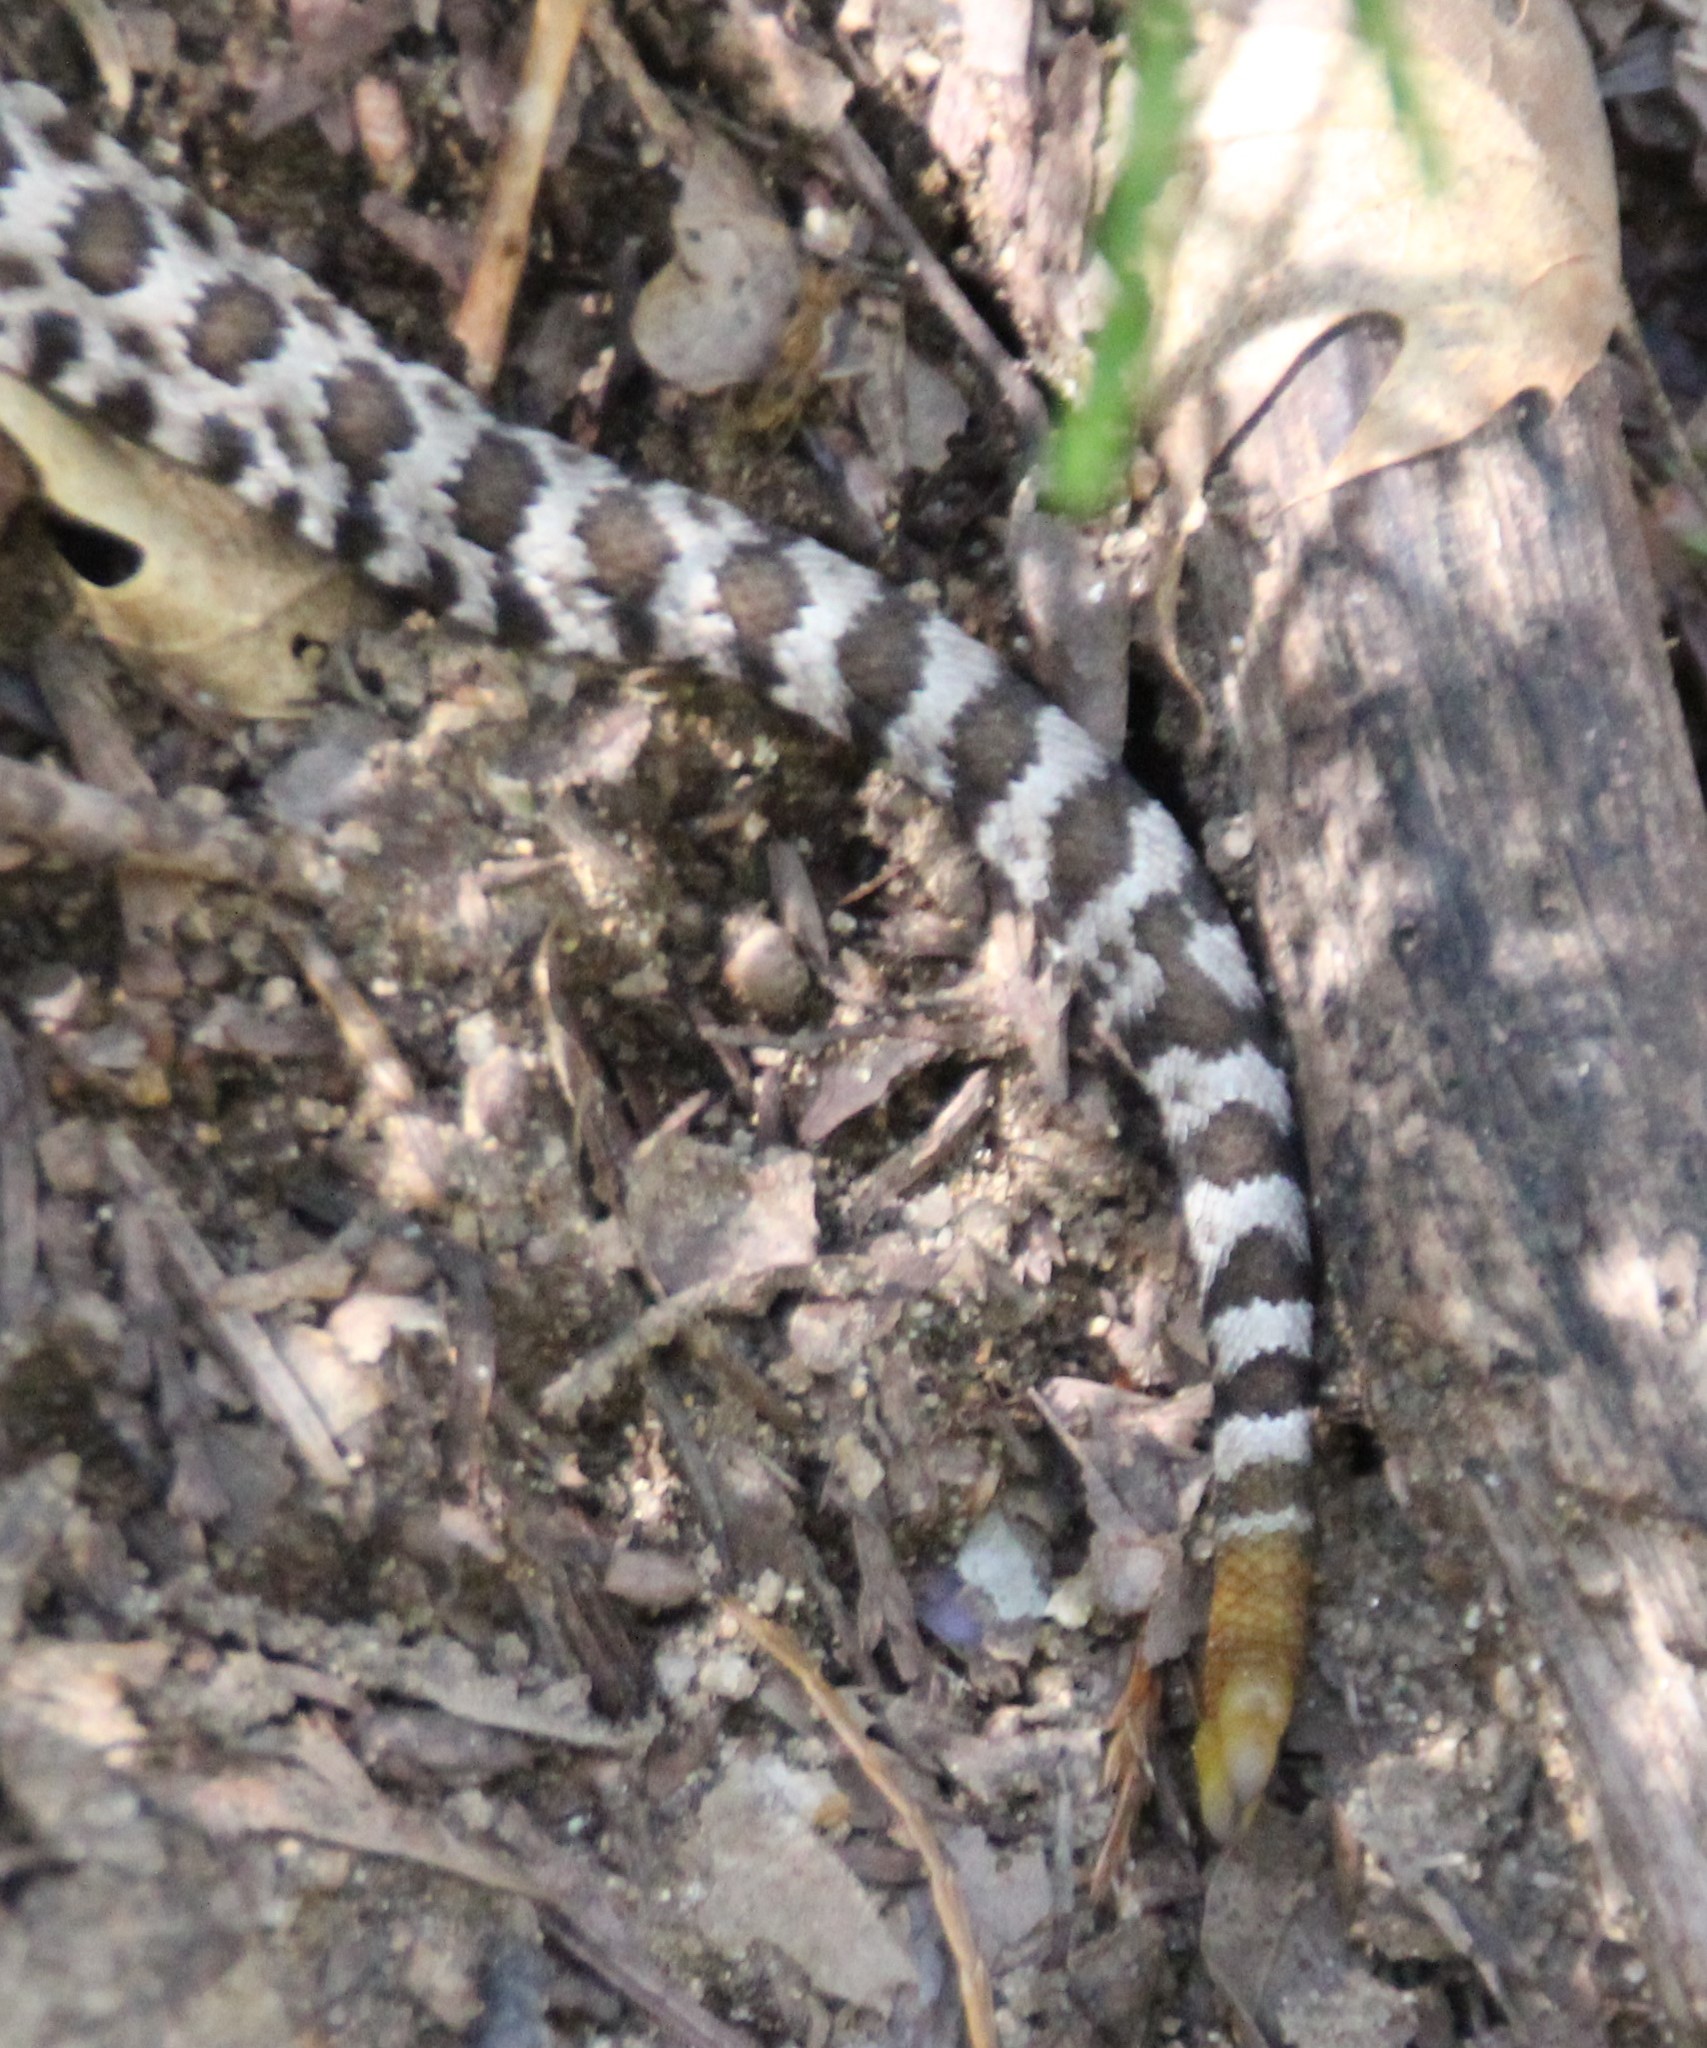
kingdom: Animalia
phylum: Chordata
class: Squamata
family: Viperidae
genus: Crotalus
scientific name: Crotalus oreganus
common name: Abyssus
